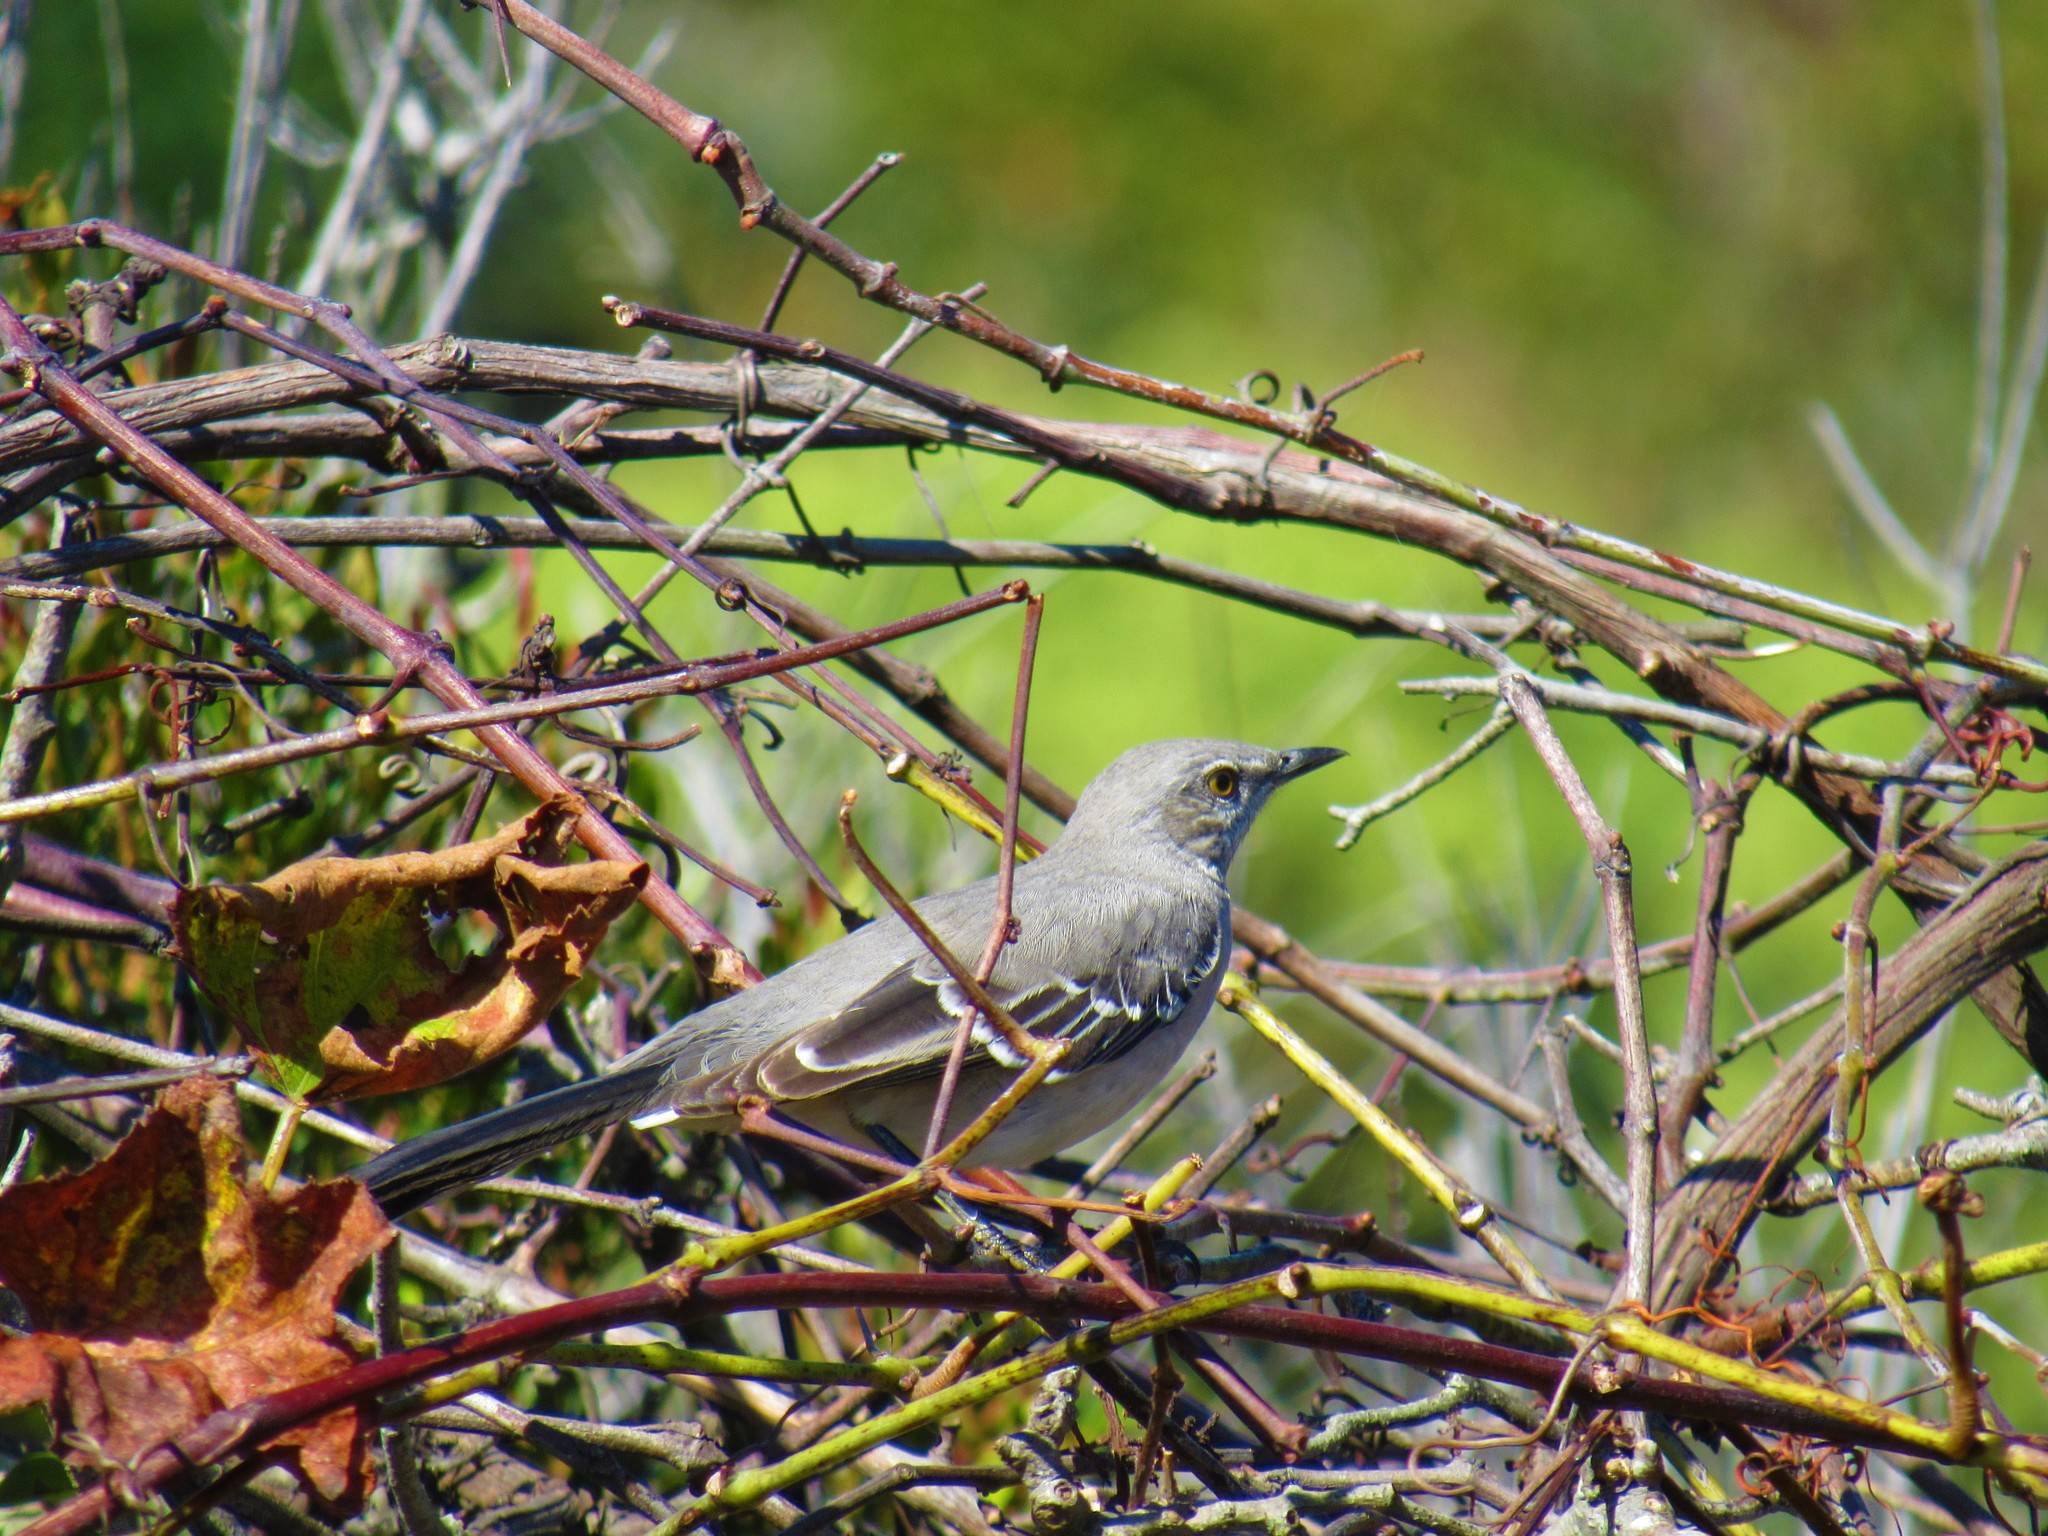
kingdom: Animalia
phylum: Chordata
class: Aves
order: Passeriformes
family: Mimidae
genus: Mimus
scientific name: Mimus polyglottos
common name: Northern mockingbird
